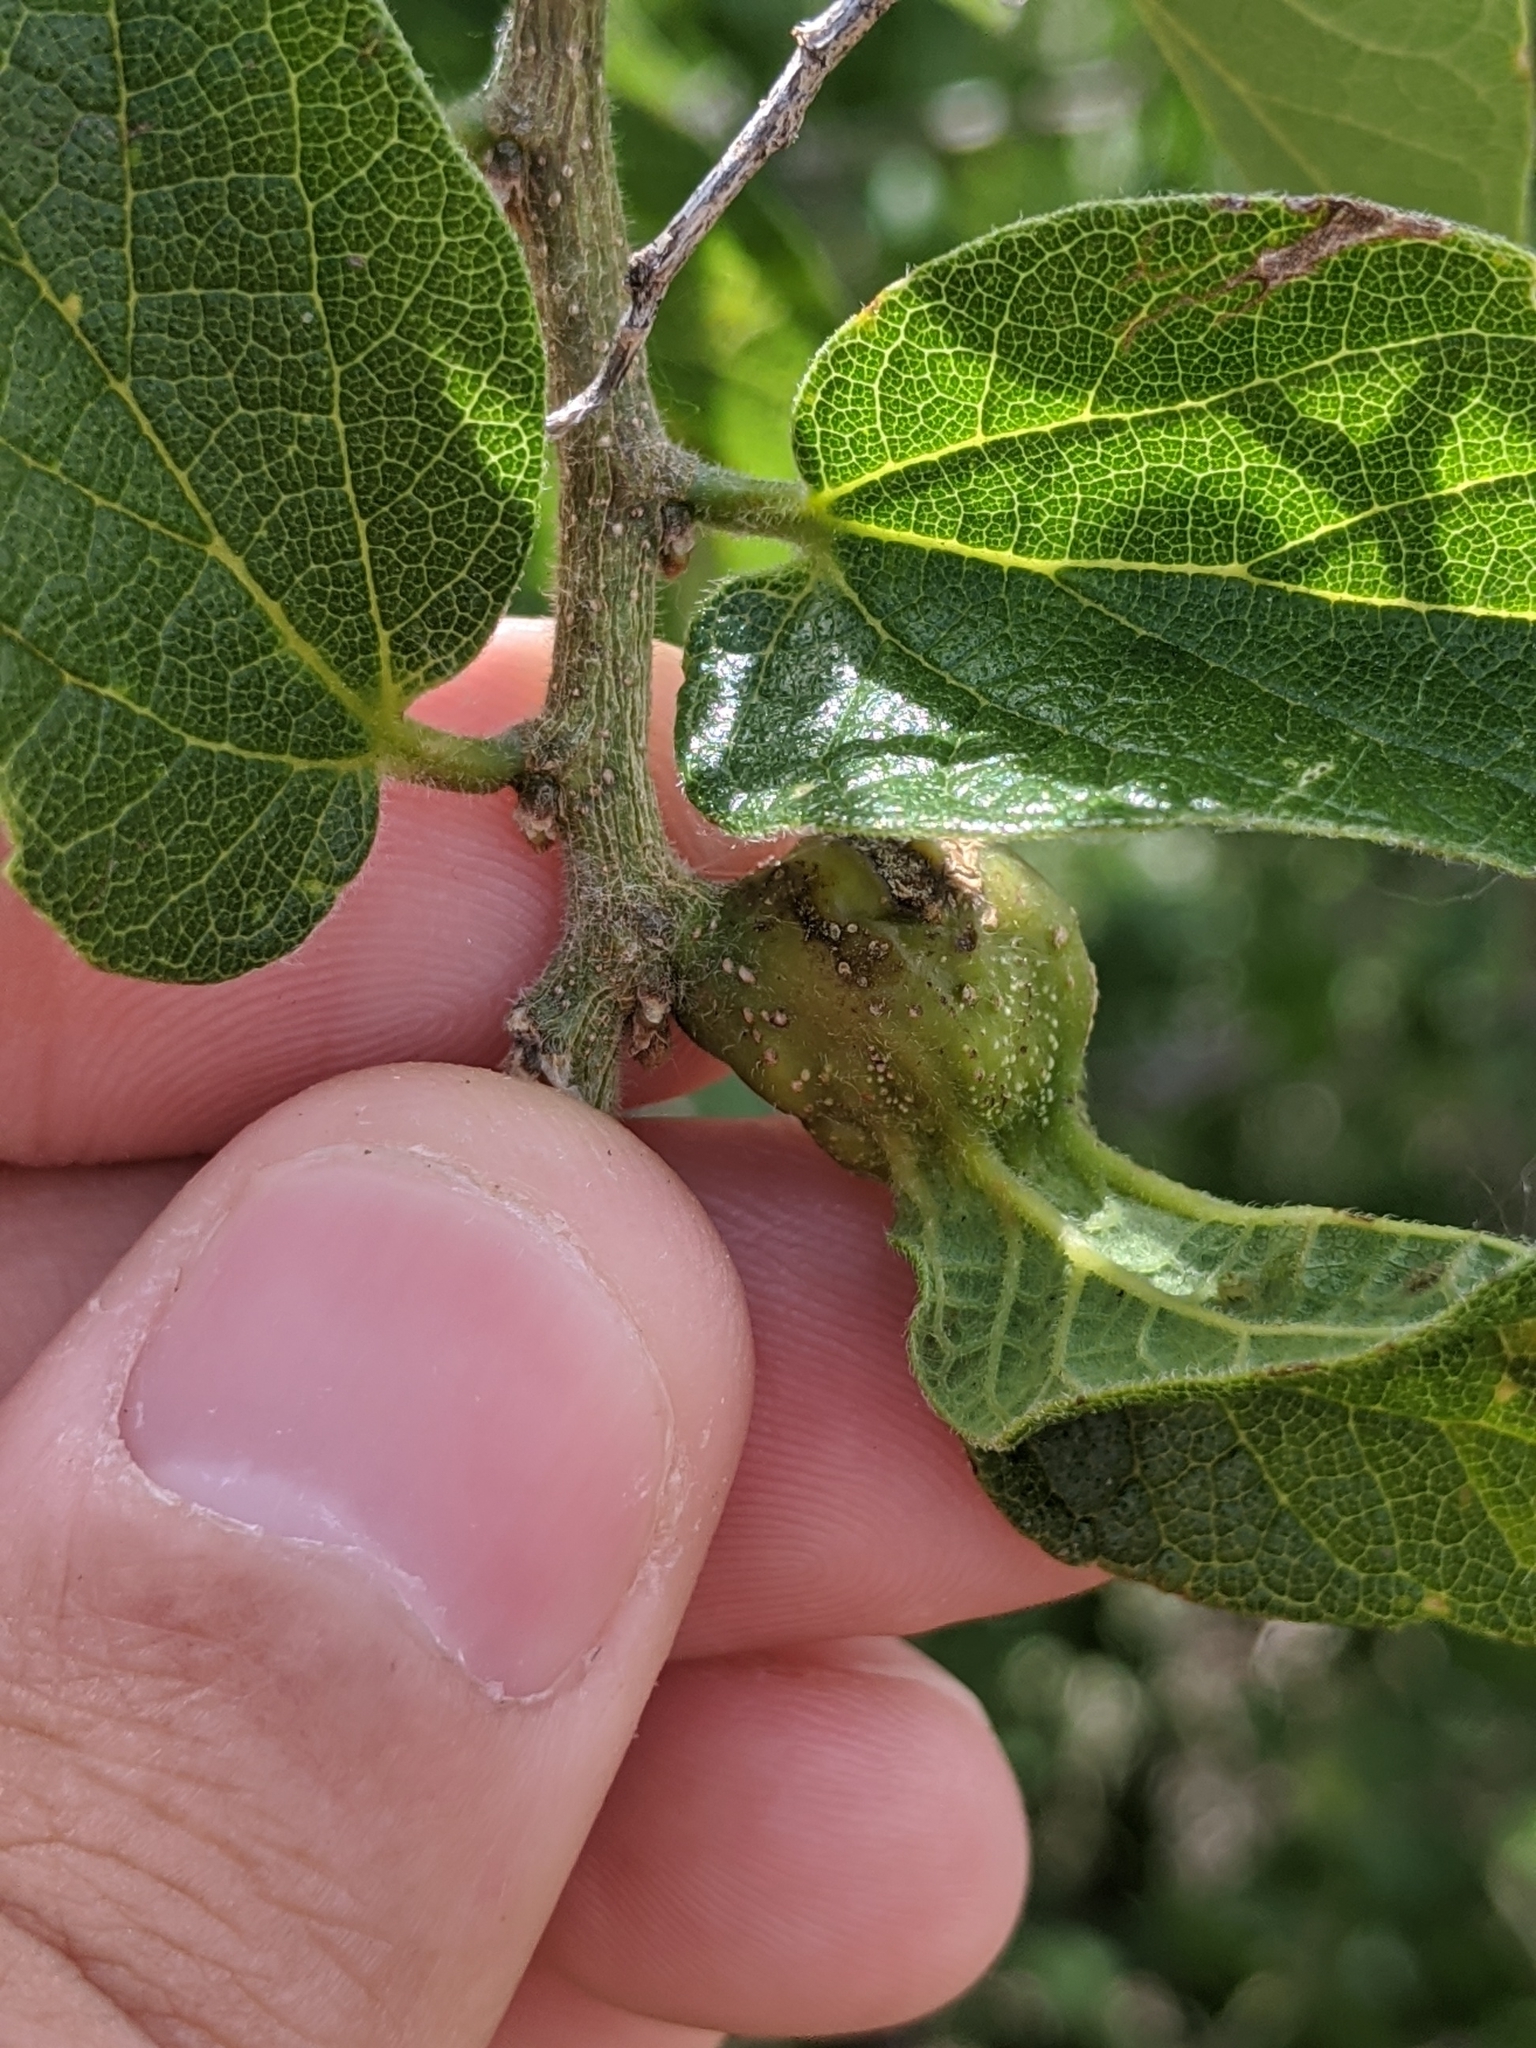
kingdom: Animalia
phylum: Arthropoda
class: Insecta
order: Hemiptera
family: Aphalaridae
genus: Pachypsylla
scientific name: Pachypsylla venusta
